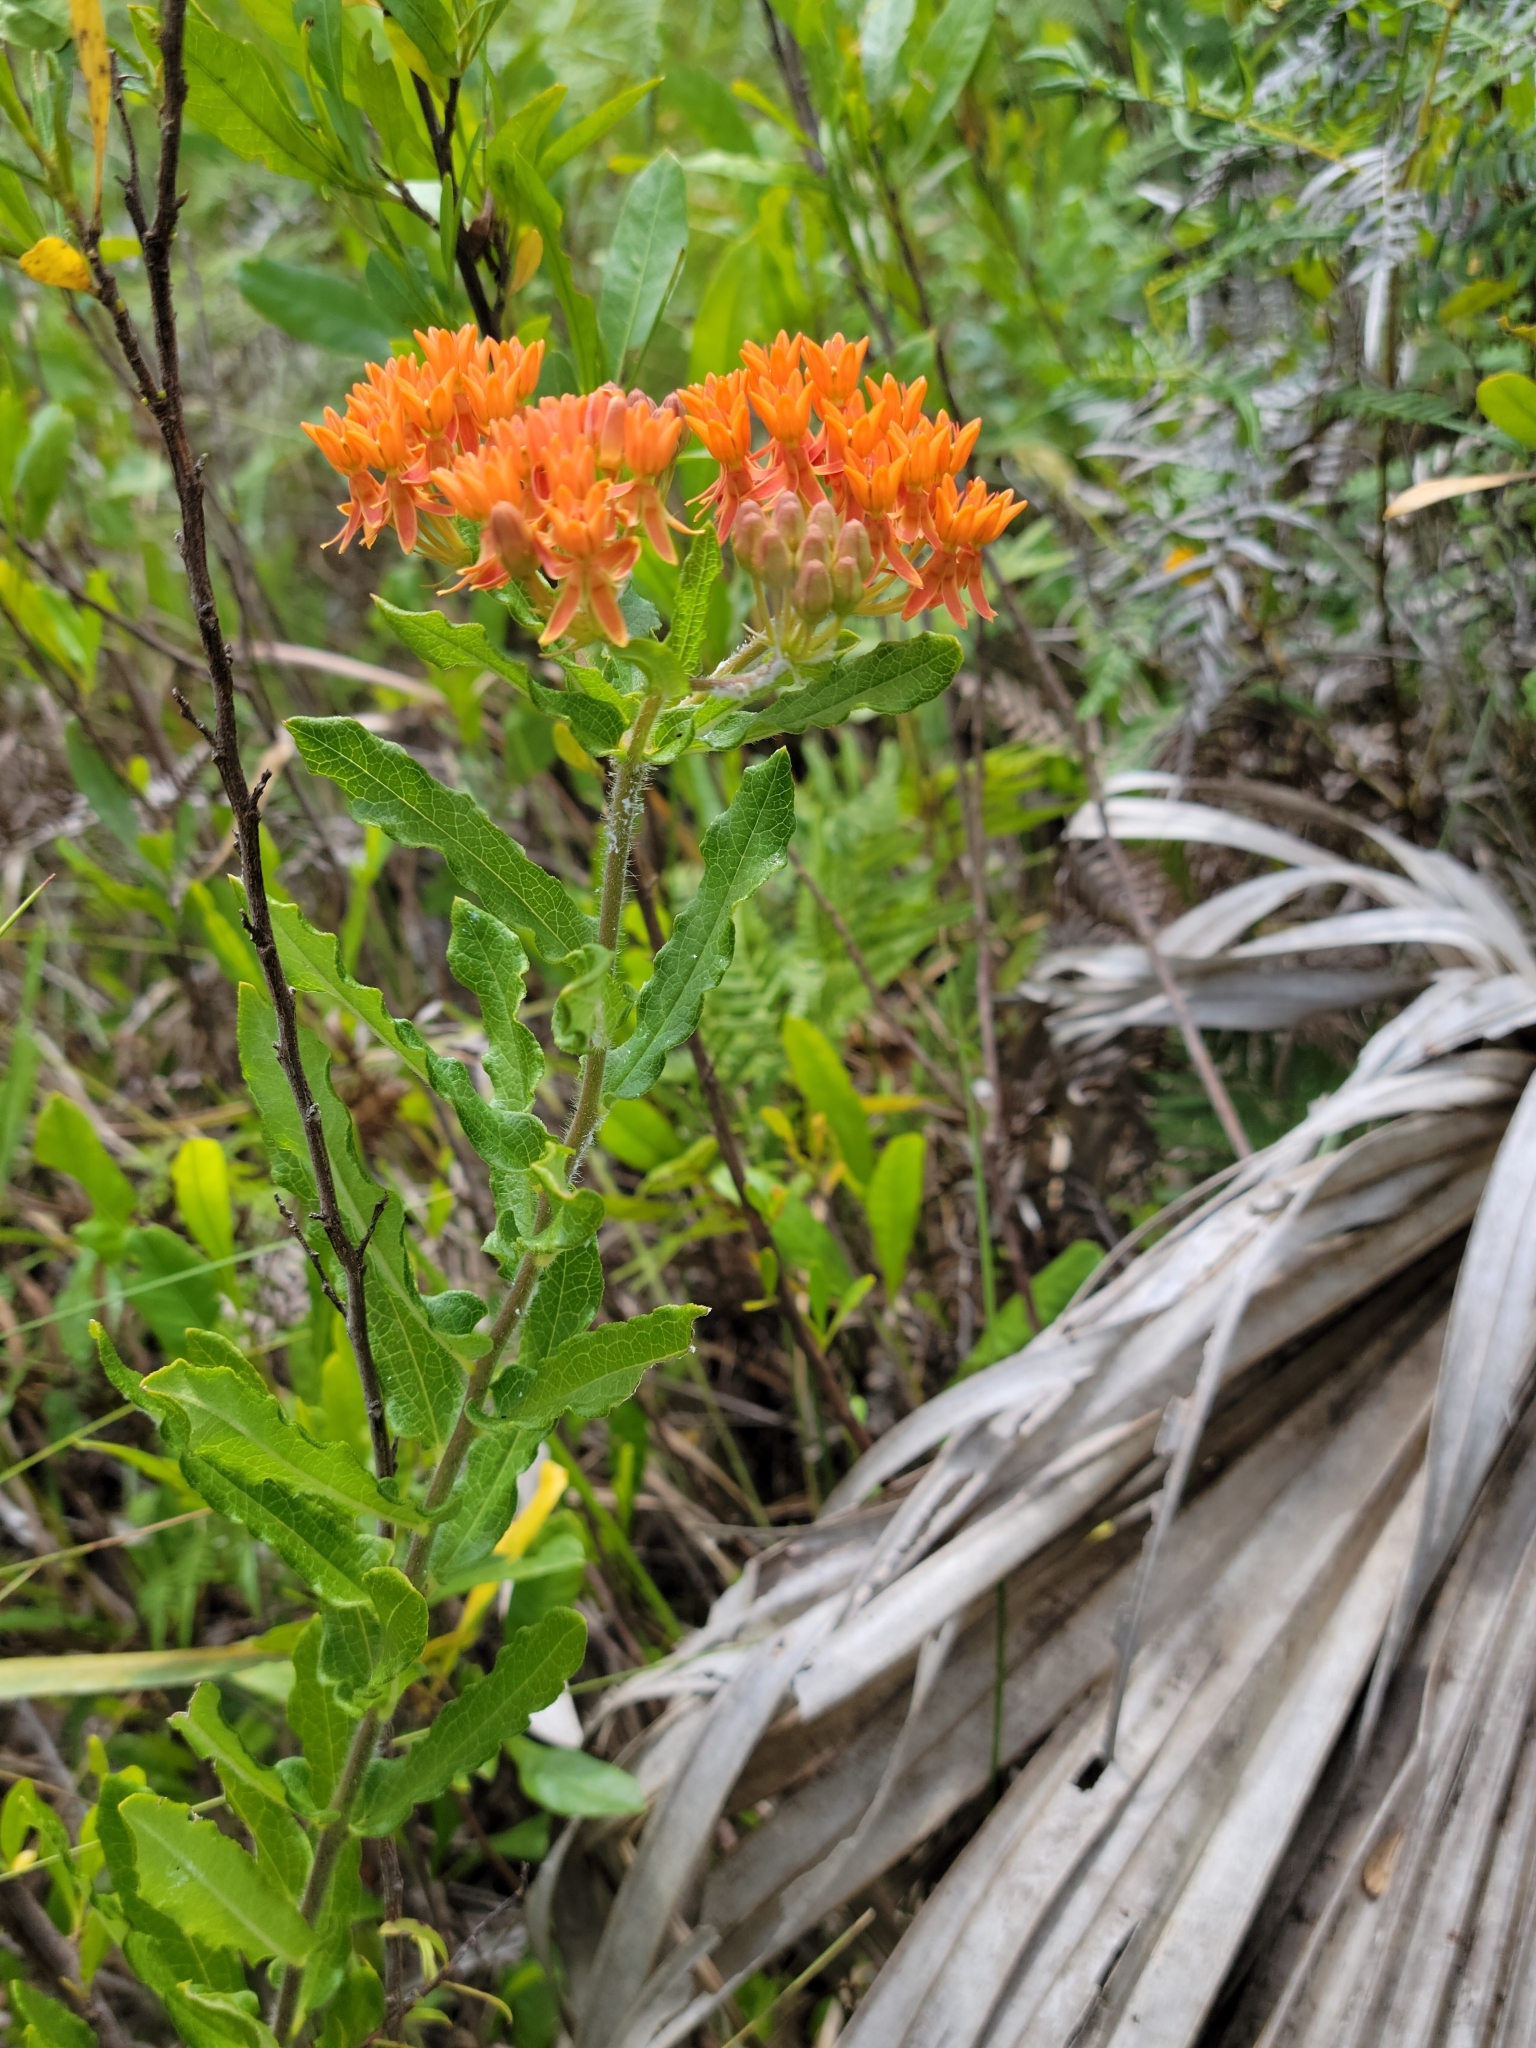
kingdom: Plantae
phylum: Tracheophyta
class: Magnoliopsida
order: Gentianales
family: Apocynaceae
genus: Asclepias
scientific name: Asclepias tuberosa
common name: Butterfly milkweed
